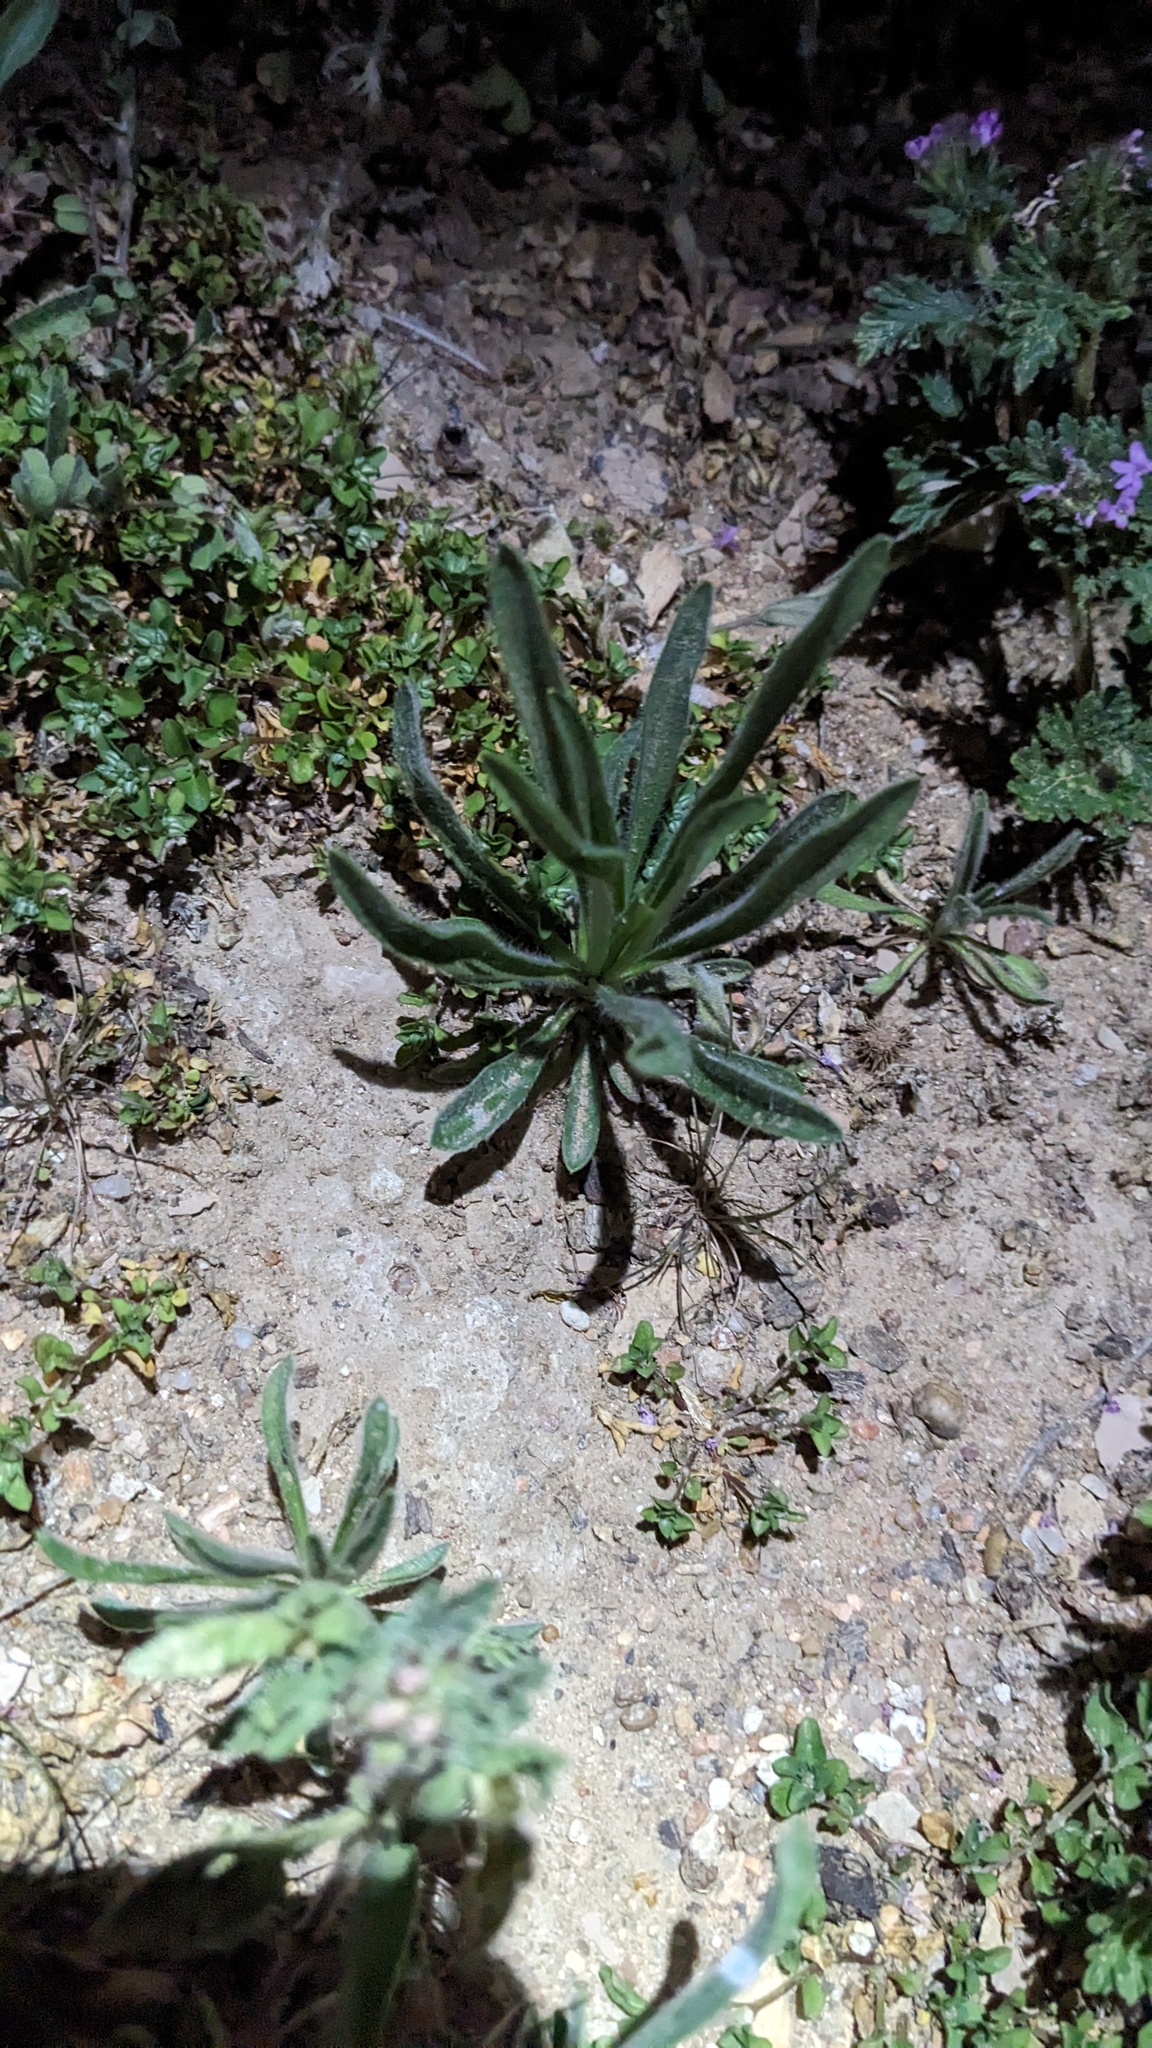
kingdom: Plantae
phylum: Tracheophyta
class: Magnoliopsida
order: Lamiales
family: Plantaginaceae
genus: Plantago
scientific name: Plantago helleri
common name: Heller's plantain
